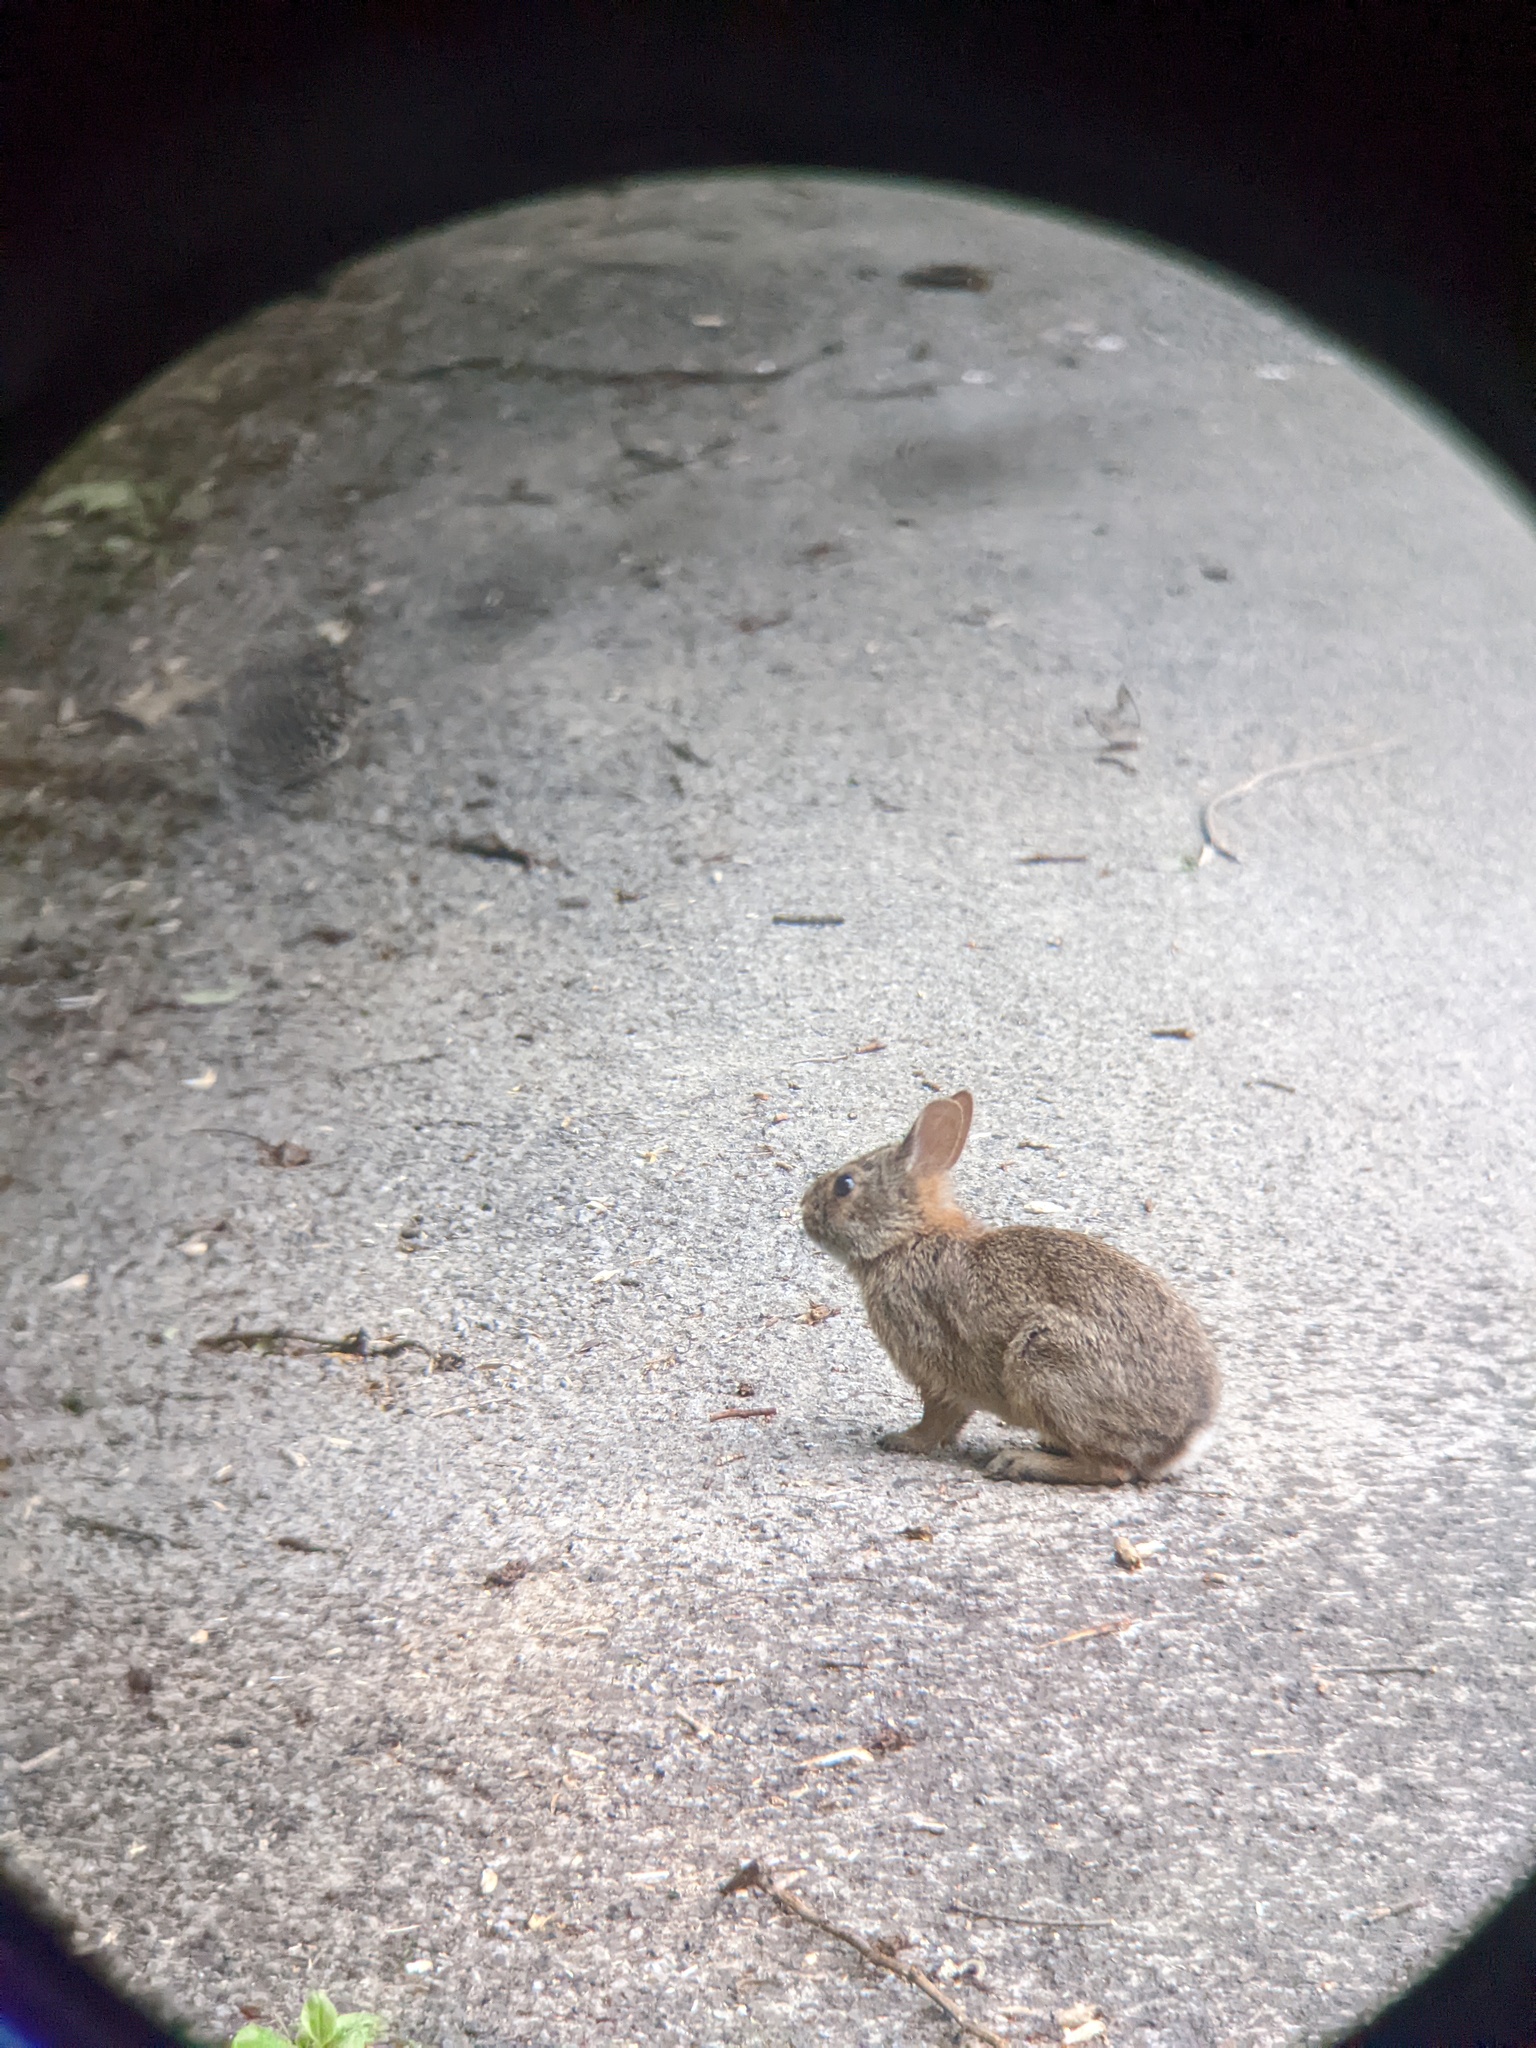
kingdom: Animalia
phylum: Chordata
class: Mammalia
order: Lagomorpha
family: Leporidae
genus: Sylvilagus
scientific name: Sylvilagus floridanus
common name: Eastern cottontail
